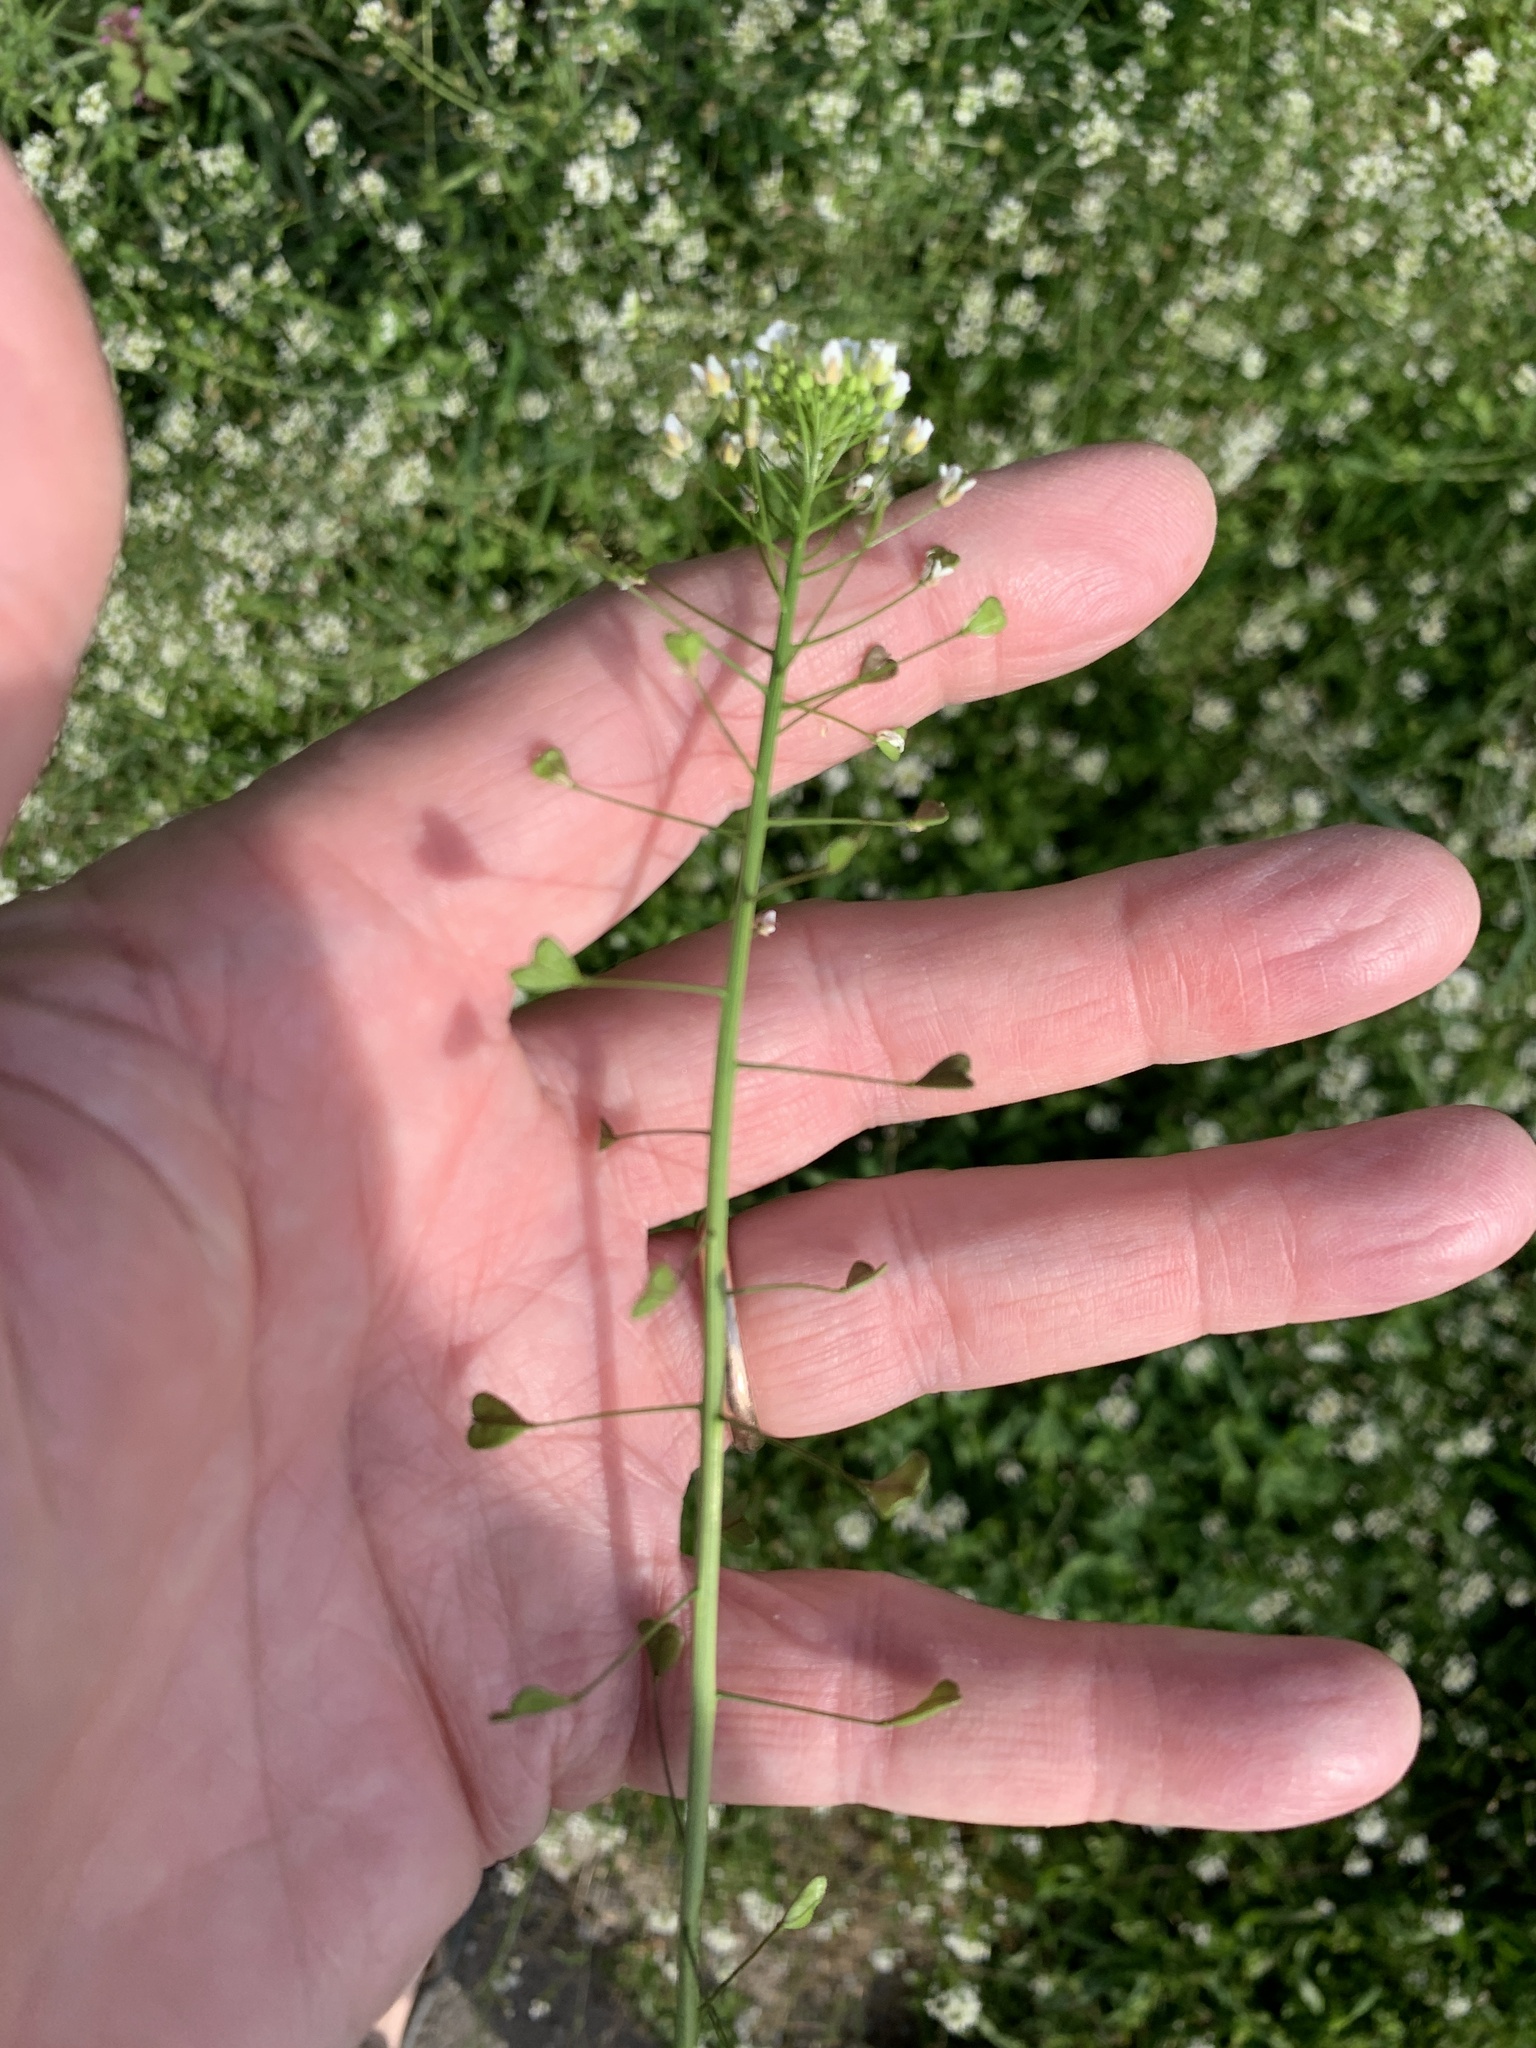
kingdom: Plantae
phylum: Tracheophyta
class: Magnoliopsida
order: Brassicales
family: Brassicaceae
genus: Capsella
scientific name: Capsella bursa-pastoris
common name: Shepherd's purse
